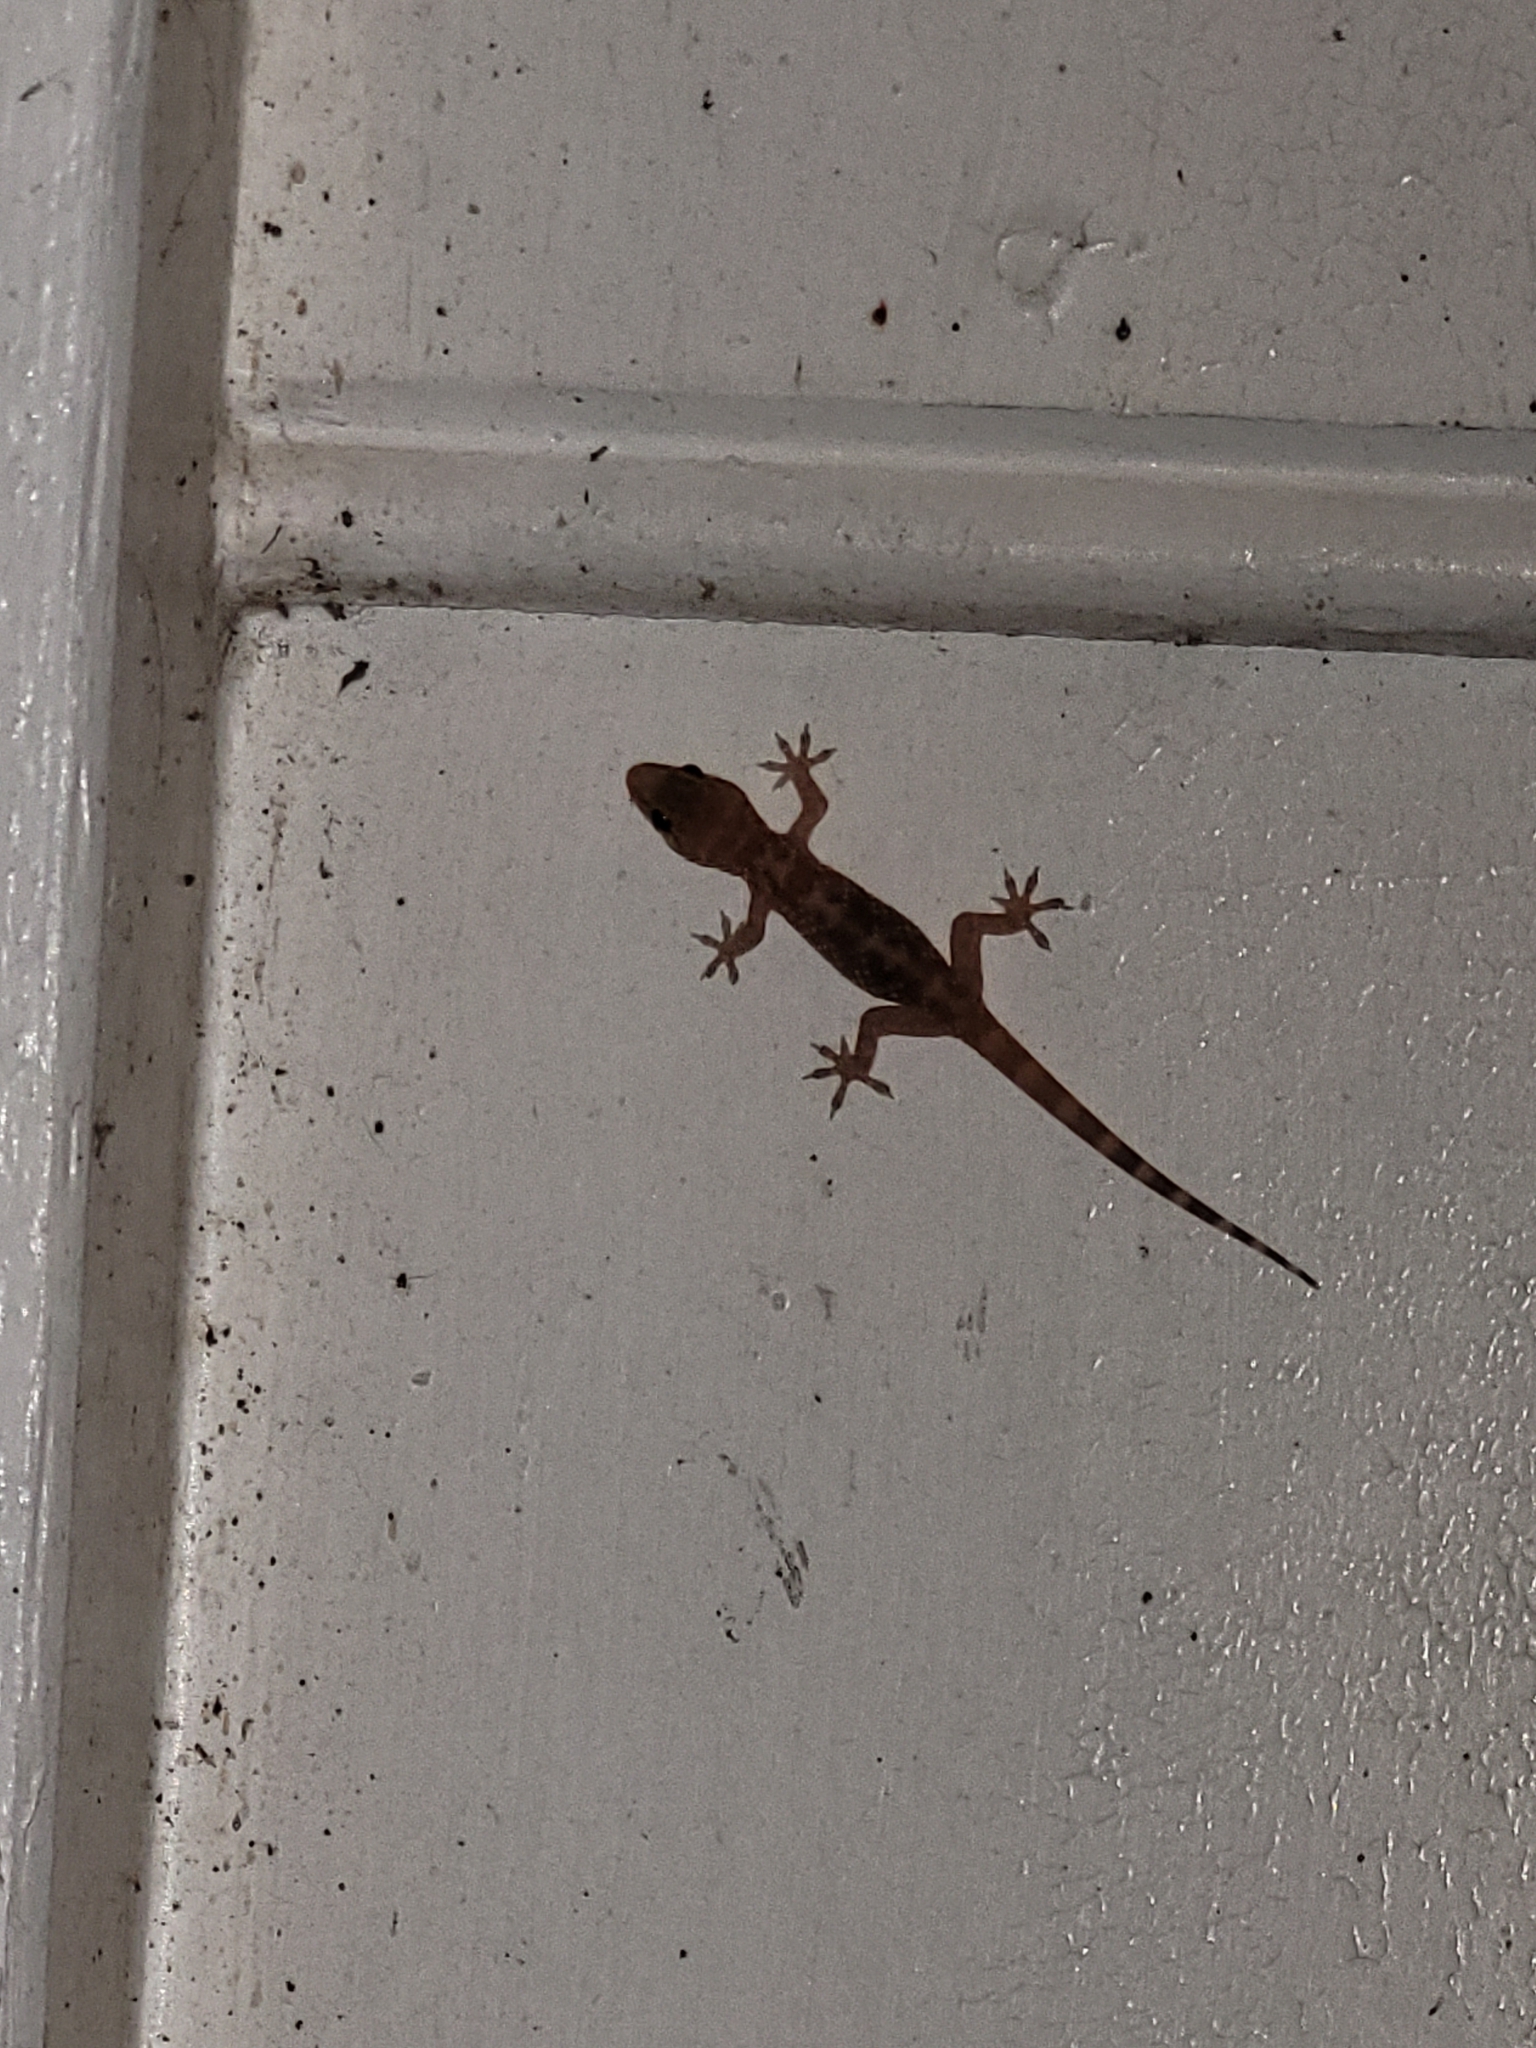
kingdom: Animalia
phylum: Chordata
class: Squamata
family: Gekkonidae
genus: Hemidactylus
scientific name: Hemidactylus turcicus
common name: Turkish gecko
